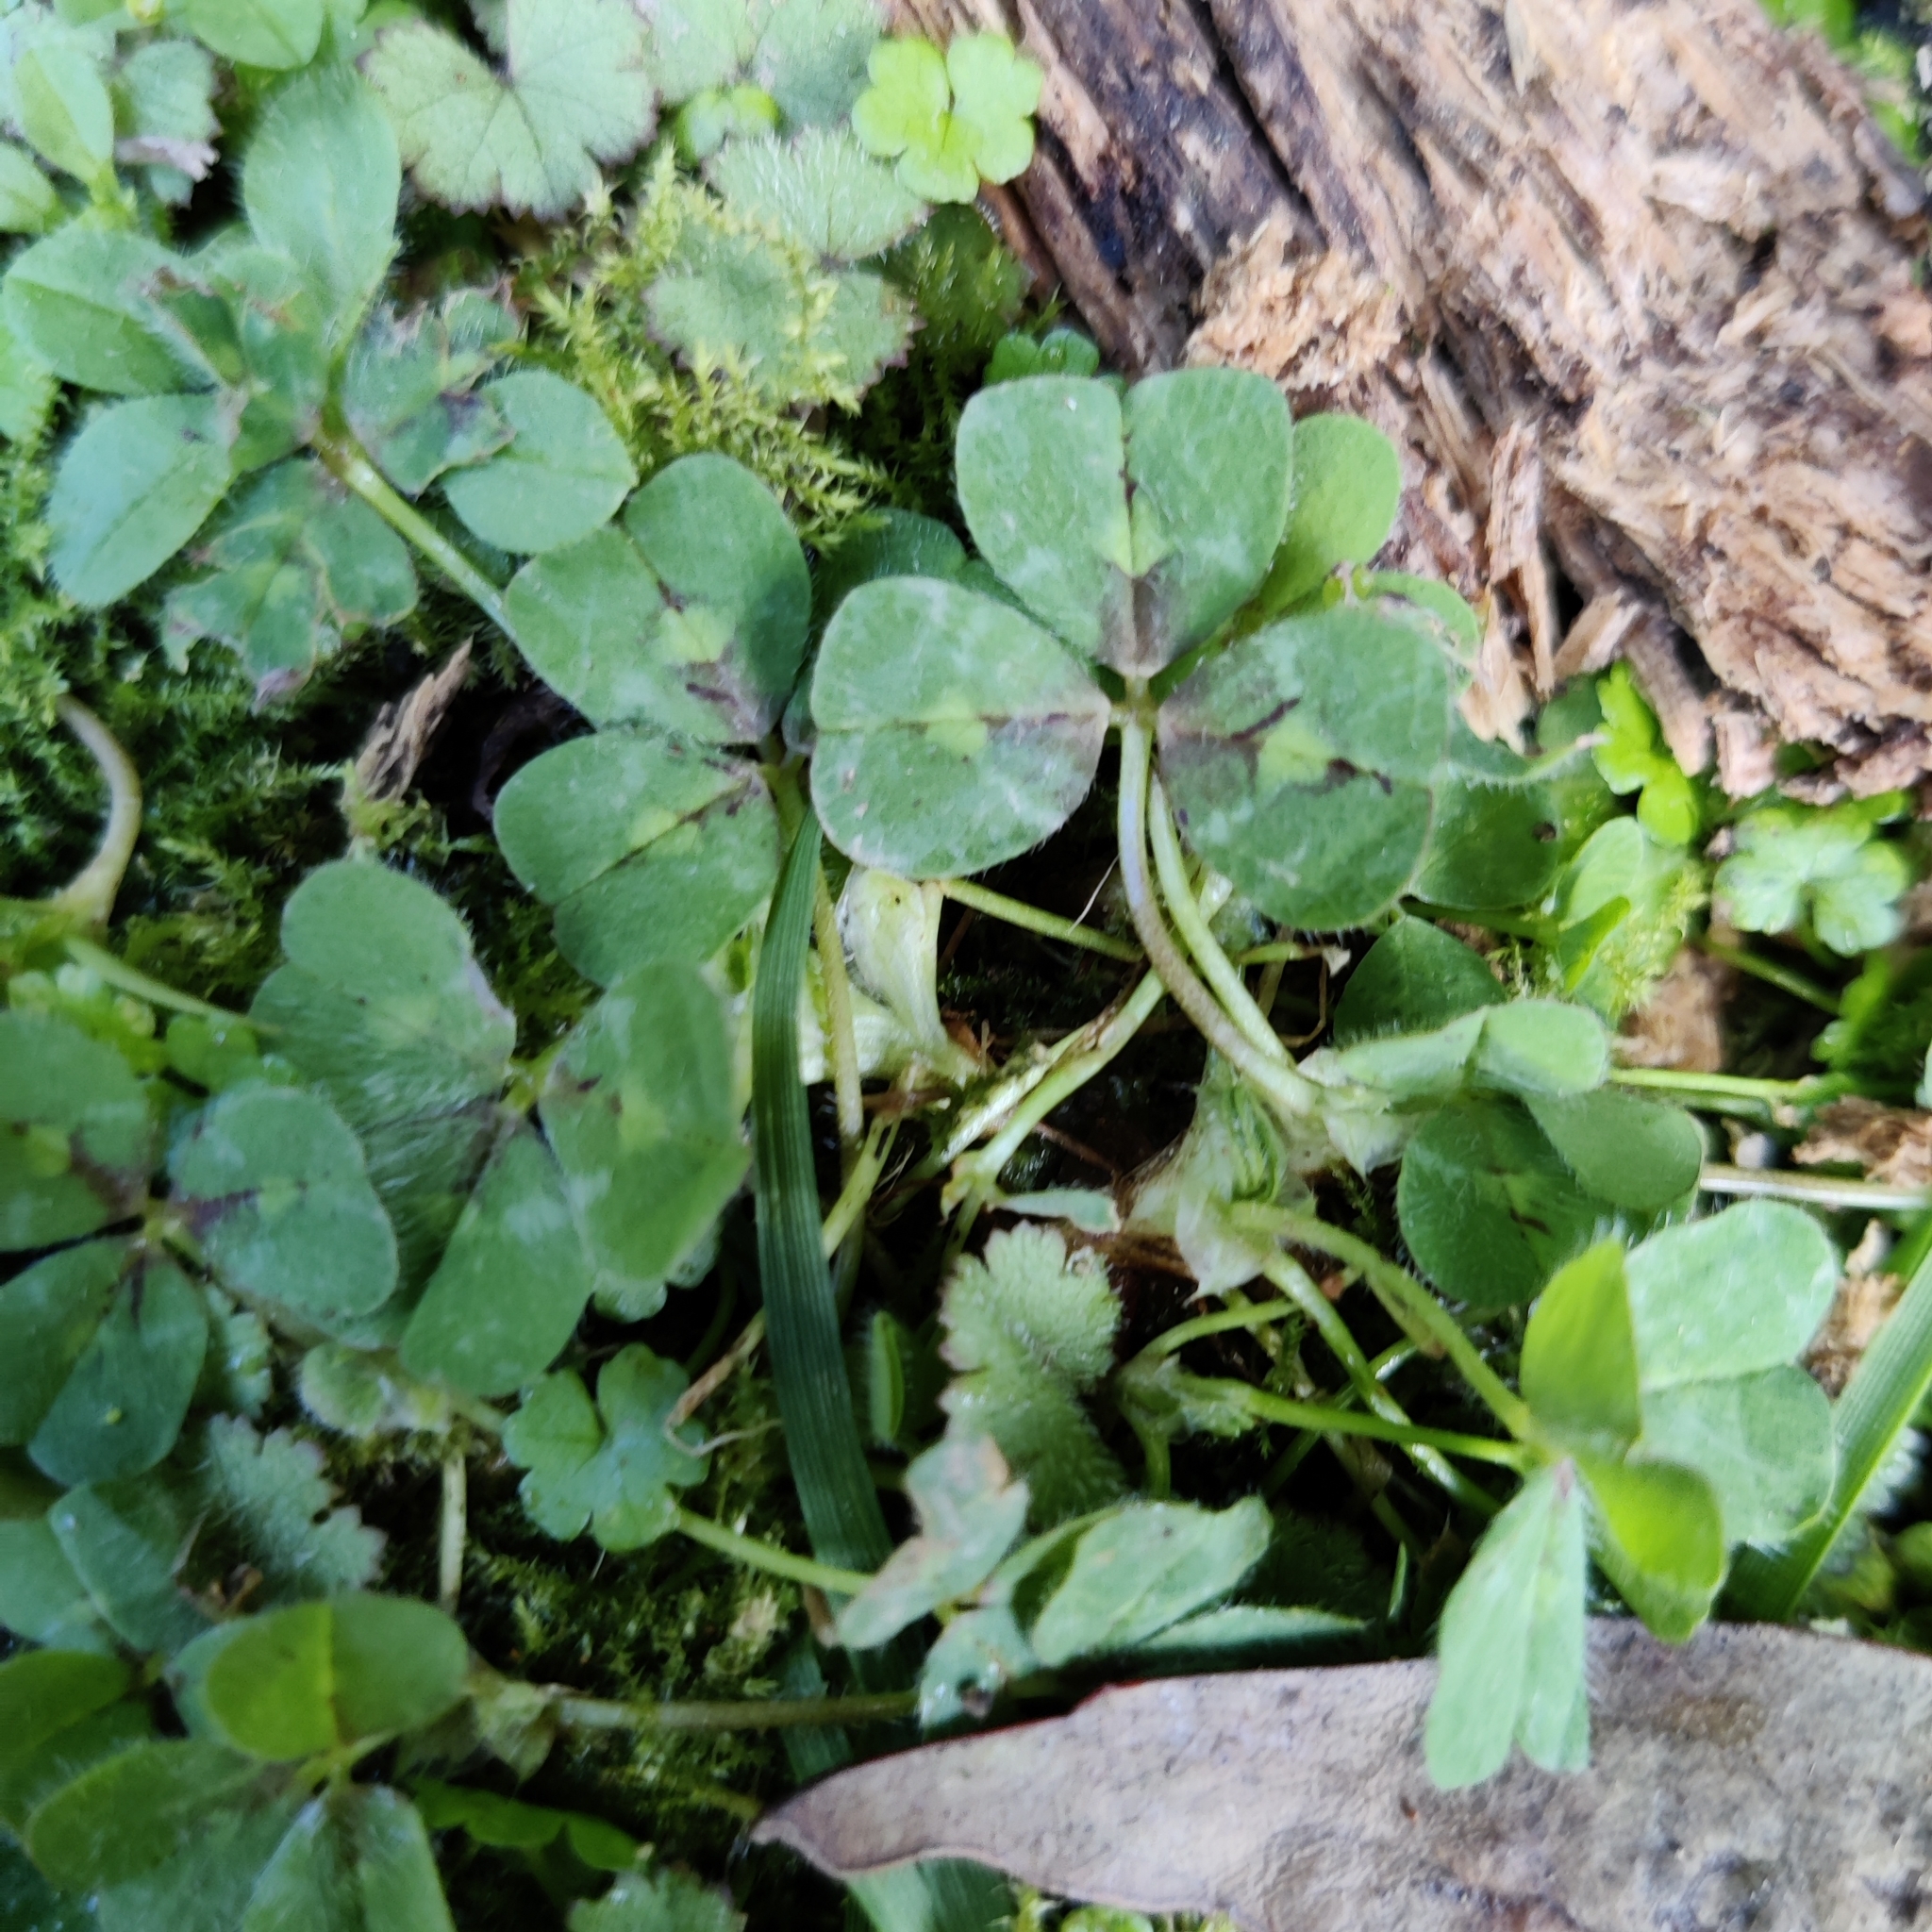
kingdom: Plantae
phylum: Tracheophyta
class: Magnoliopsida
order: Fabales
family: Fabaceae
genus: Trifolium
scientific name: Trifolium subterraneum
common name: Subterranean clover
